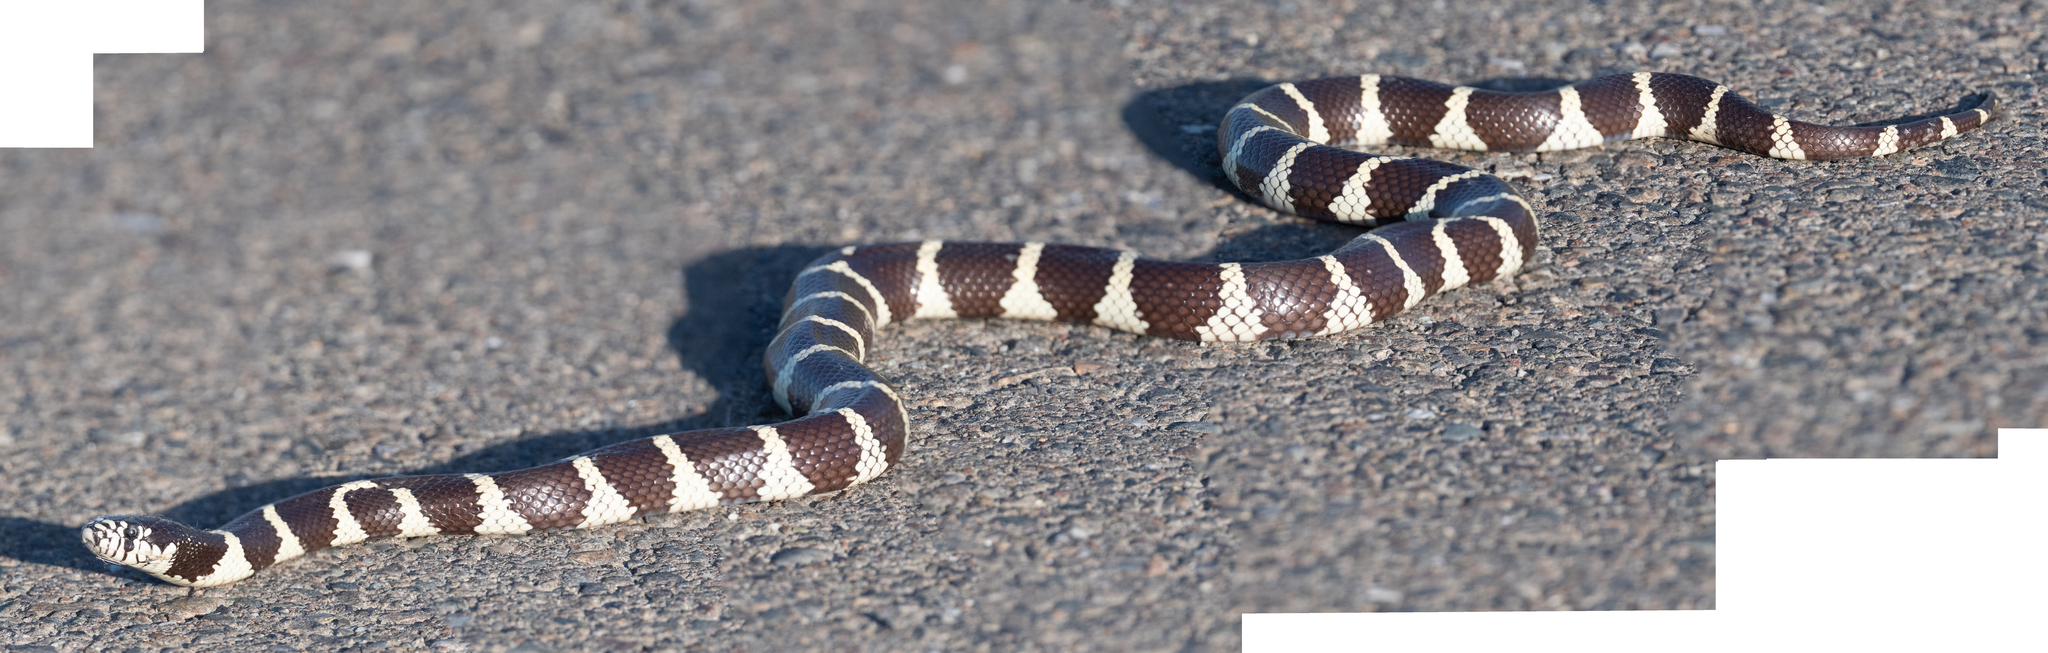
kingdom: Animalia
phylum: Chordata
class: Squamata
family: Colubridae
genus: Lampropeltis
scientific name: Lampropeltis californiae
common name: California kingsnake
